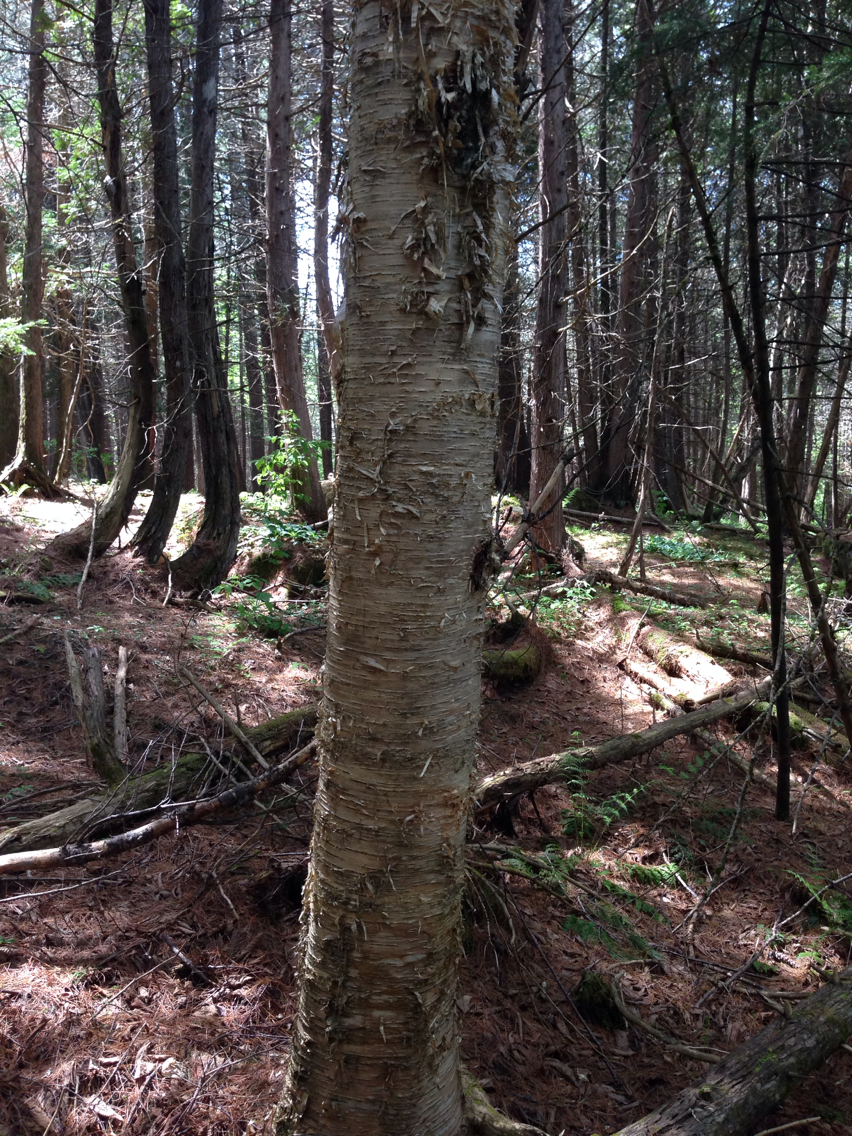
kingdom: Plantae
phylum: Tracheophyta
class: Magnoliopsida
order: Fagales
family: Betulaceae
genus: Betula
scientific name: Betula alleghaniensis
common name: Yellow birch
